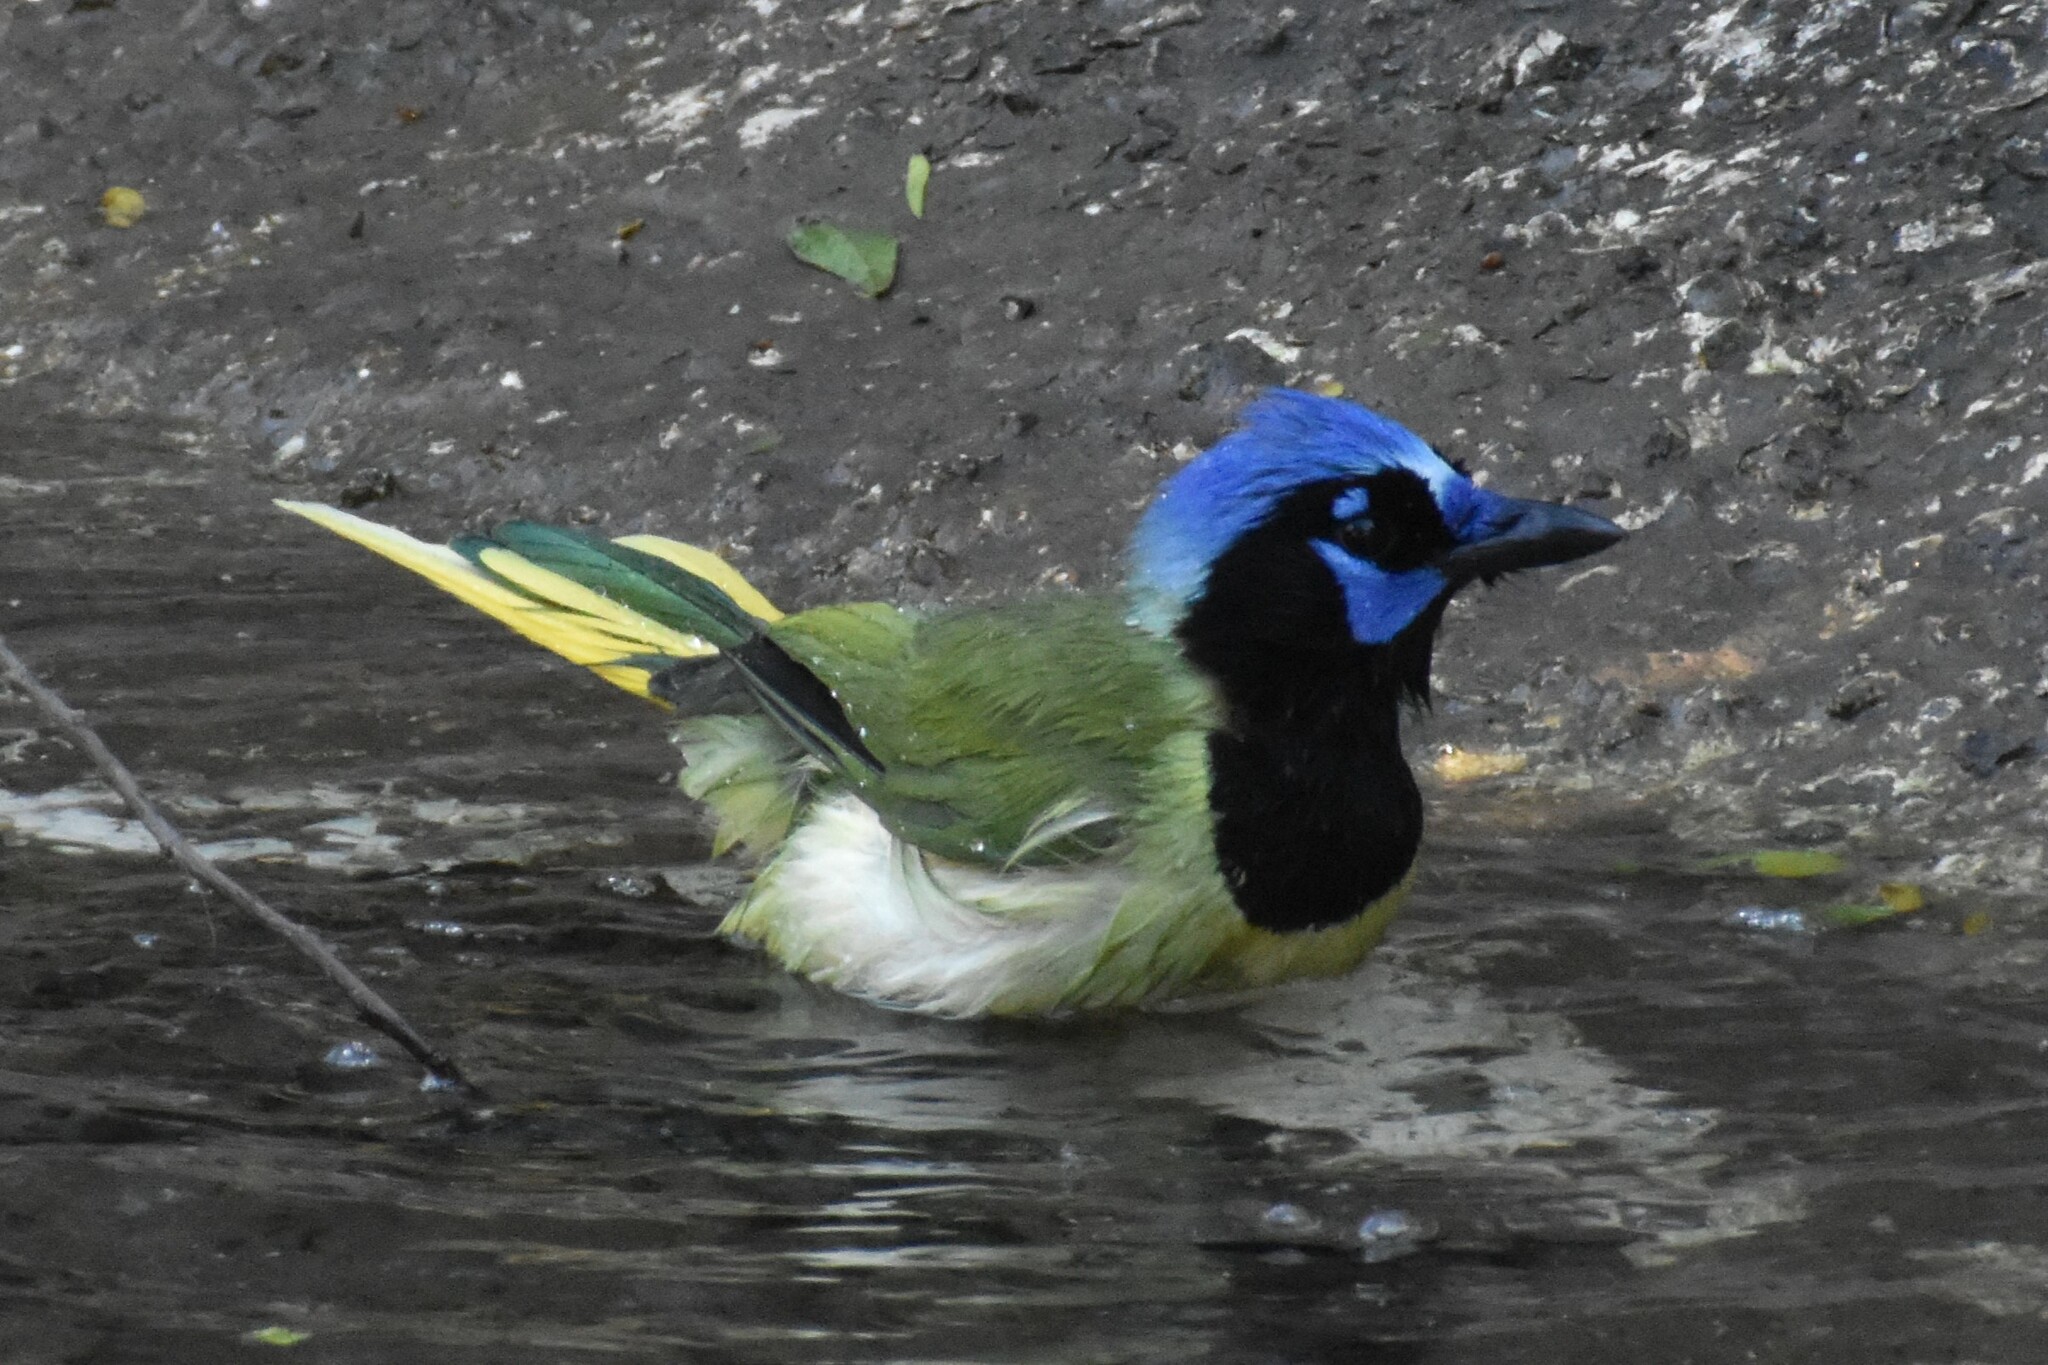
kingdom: Animalia
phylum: Chordata
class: Aves
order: Passeriformes
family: Corvidae
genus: Cyanocorax
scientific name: Cyanocorax yncas
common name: Green jay
